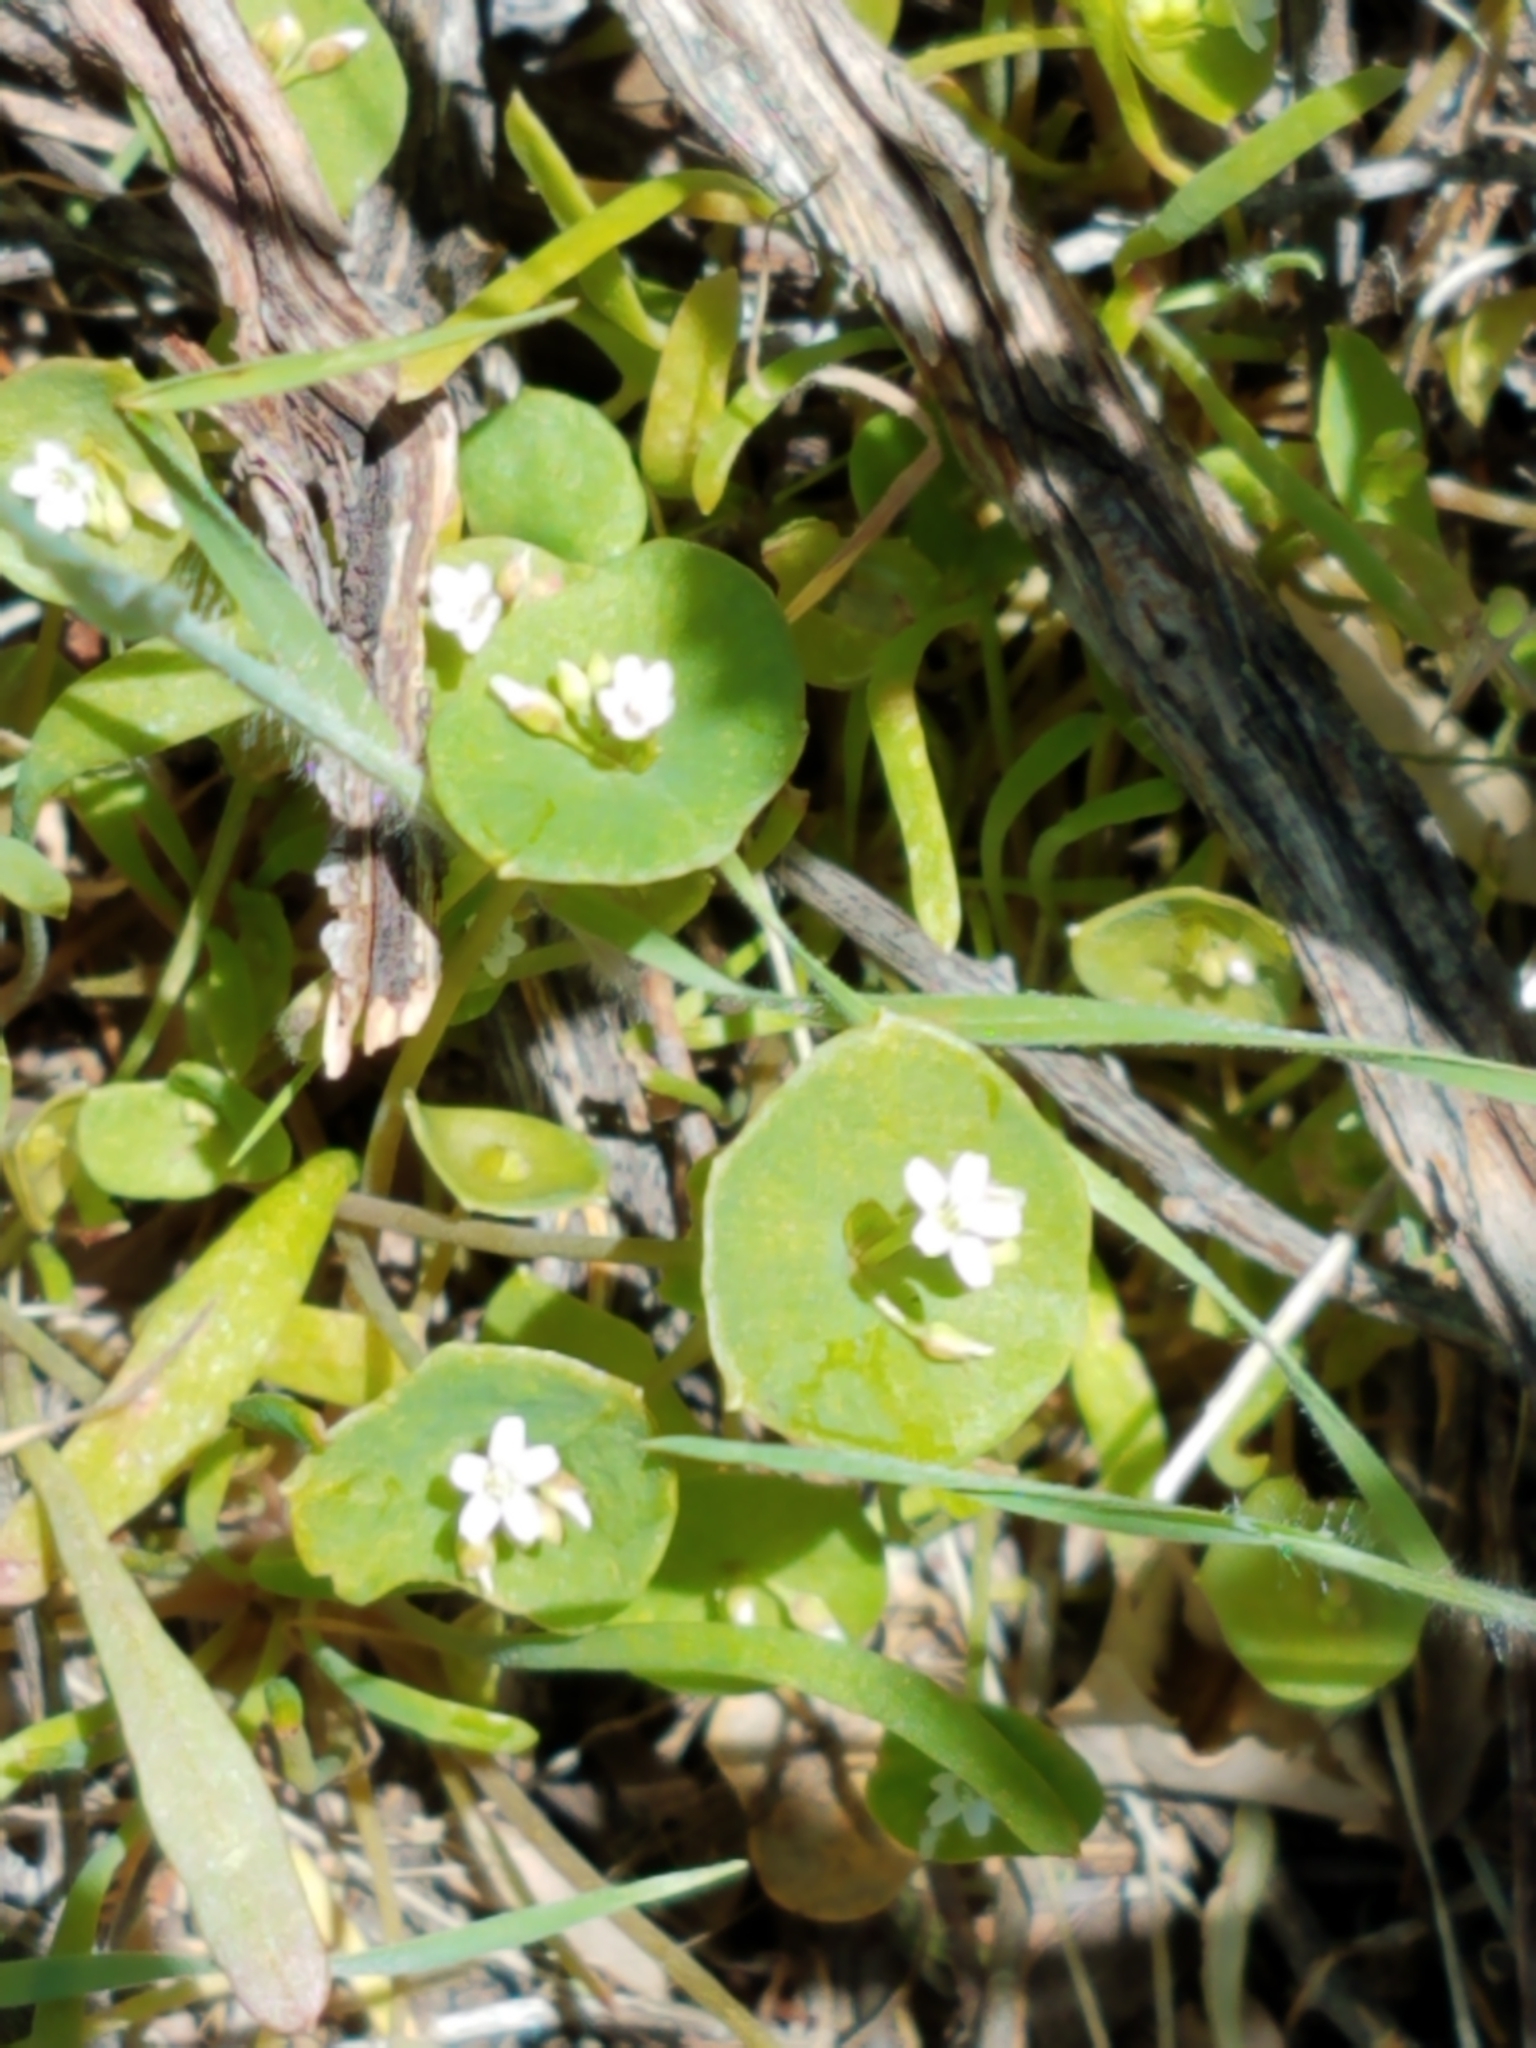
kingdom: Plantae
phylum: Tracheophyta
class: Magnoliopsida
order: Caryophyllales
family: Montiaceae
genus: Claytonia
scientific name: Claytonia perfoliata
